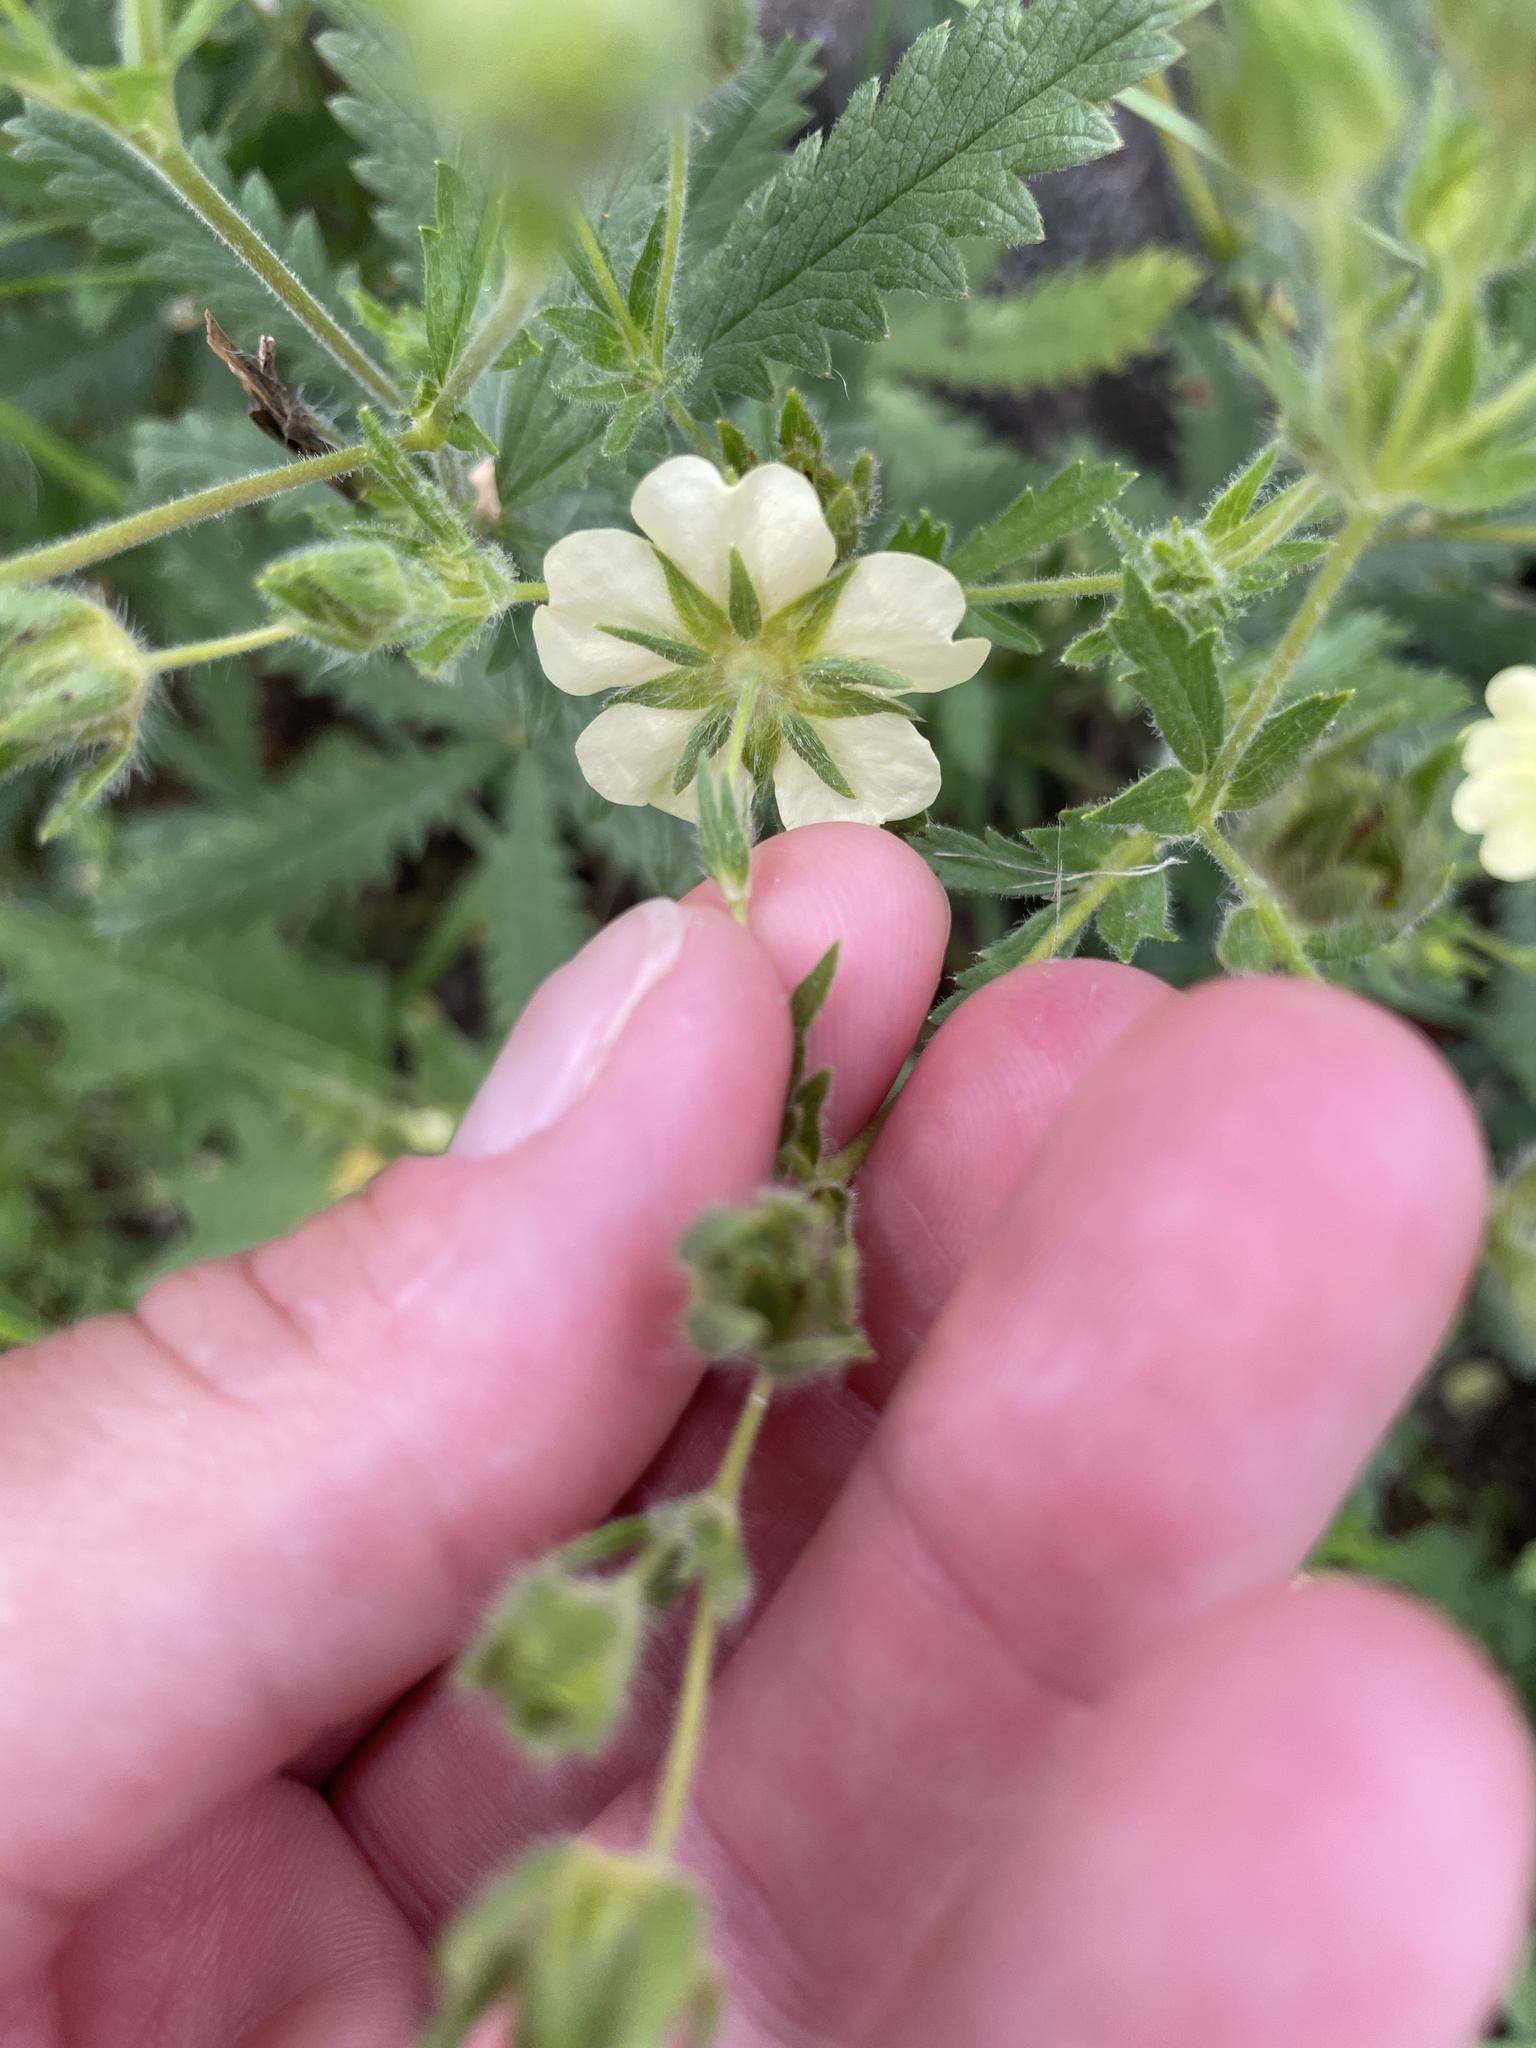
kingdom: Plantae
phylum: Tracheophyta
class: Magnoliopsida
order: Rosales
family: Rosaceae
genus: Potentilla
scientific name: Potentilla recta
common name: Sulphur cinquefoil
